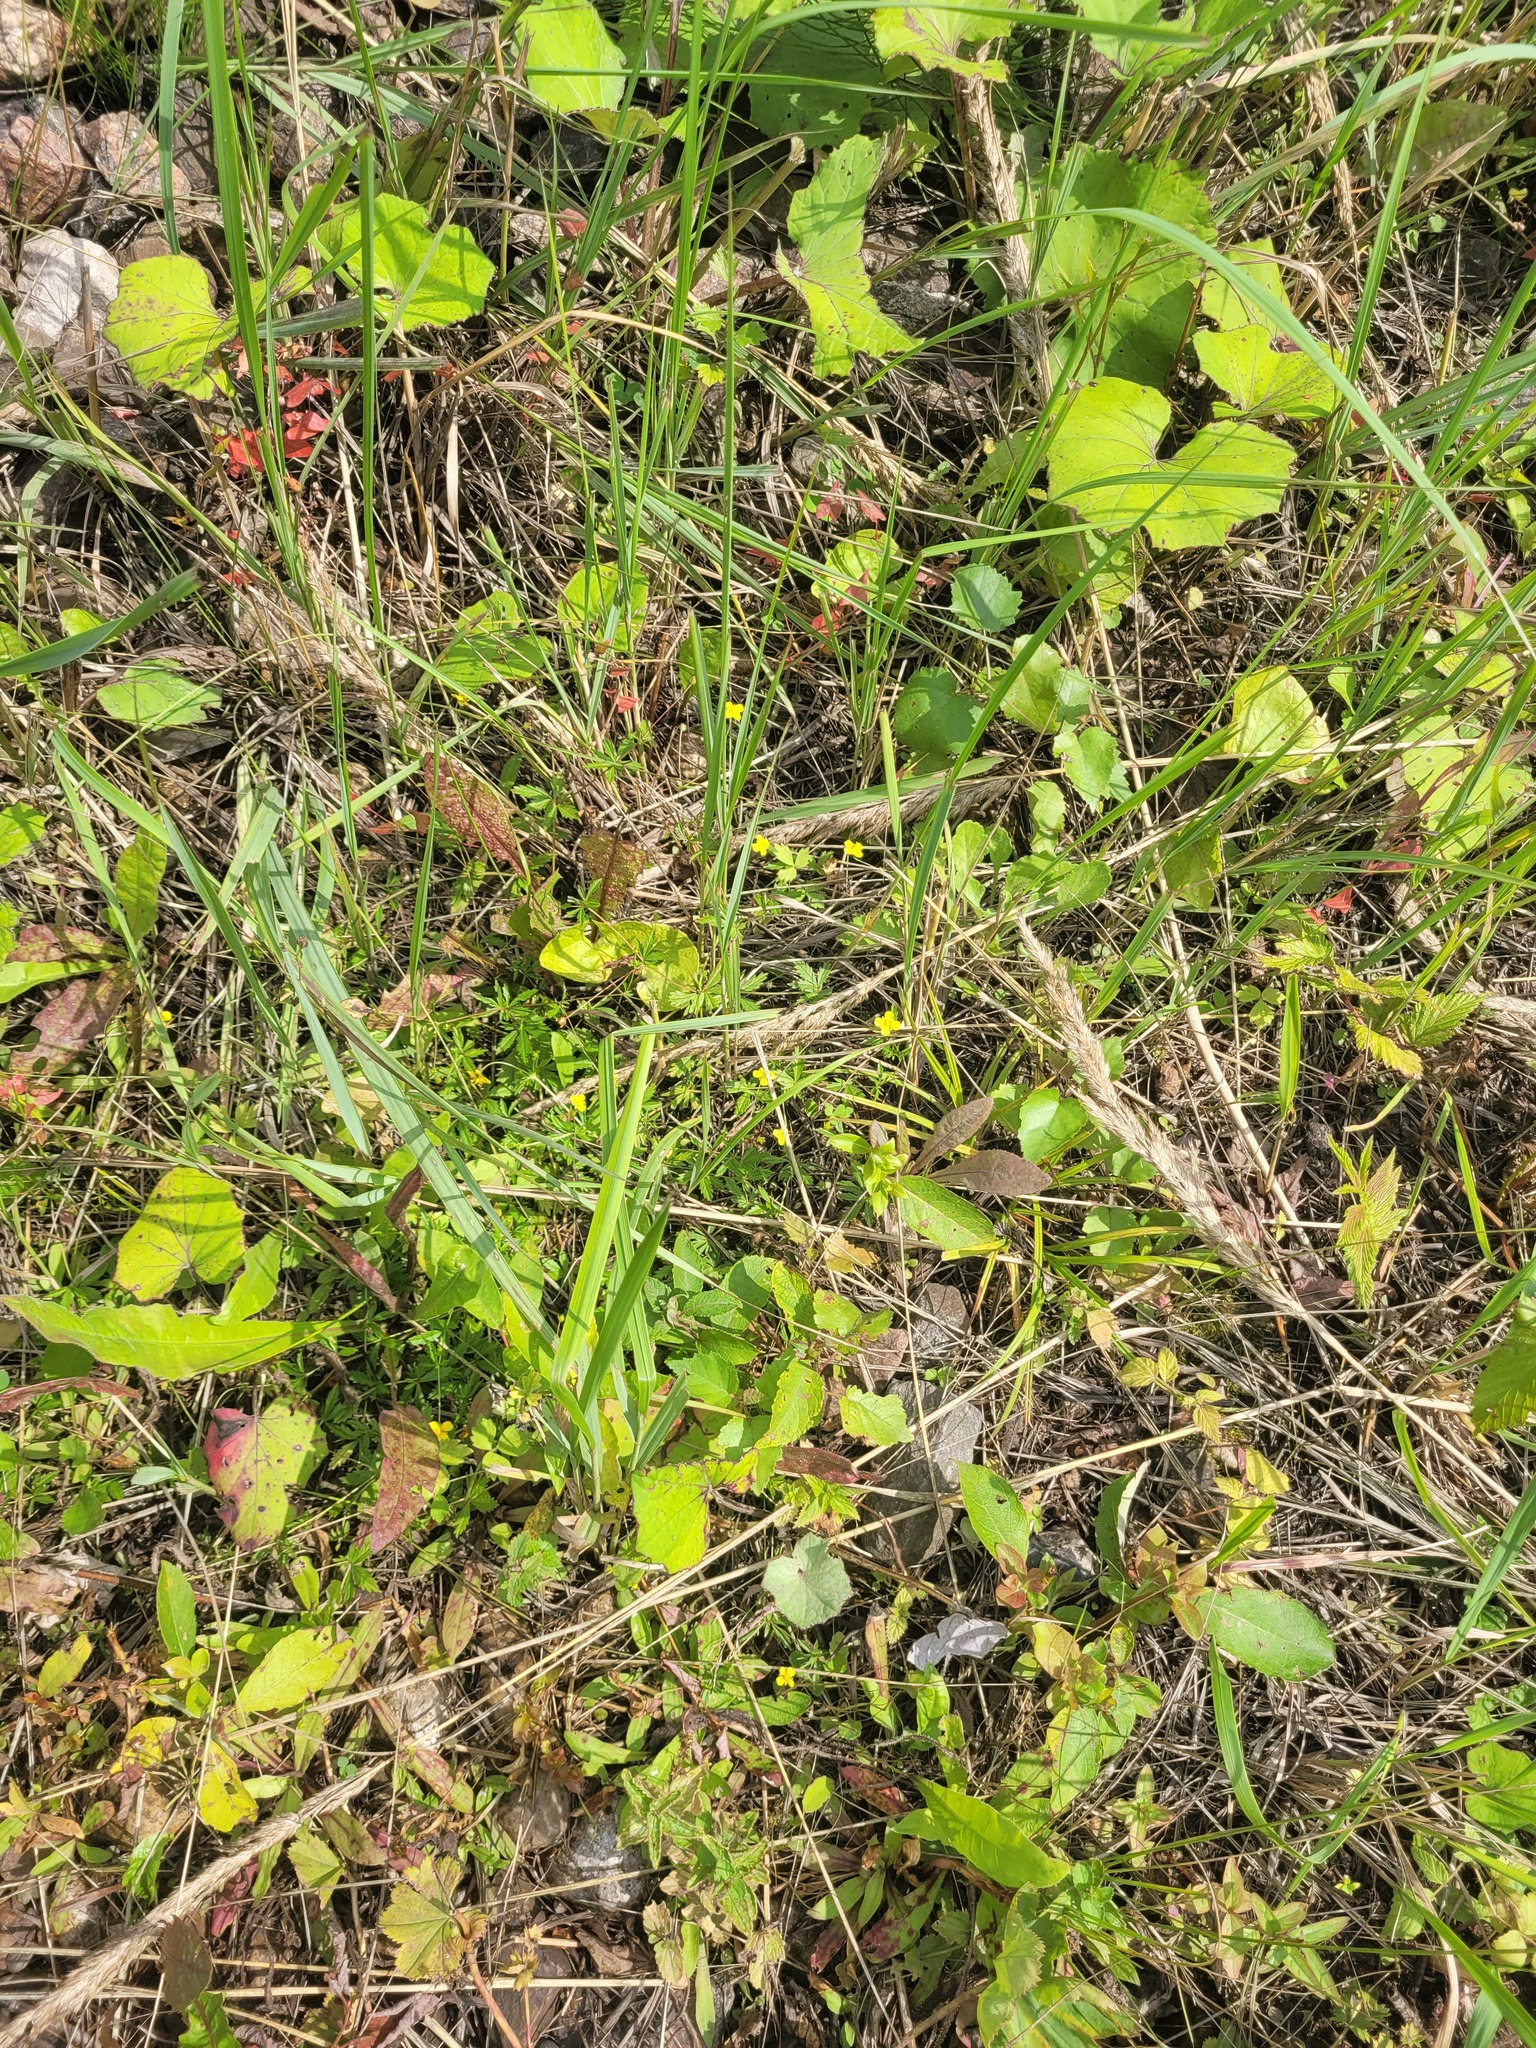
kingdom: Plantae
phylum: Tracheophyta
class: Magnoliopsida
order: Rosales
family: Rosaceae
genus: Potentilla
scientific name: Potentilla erecta
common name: Tormentil
